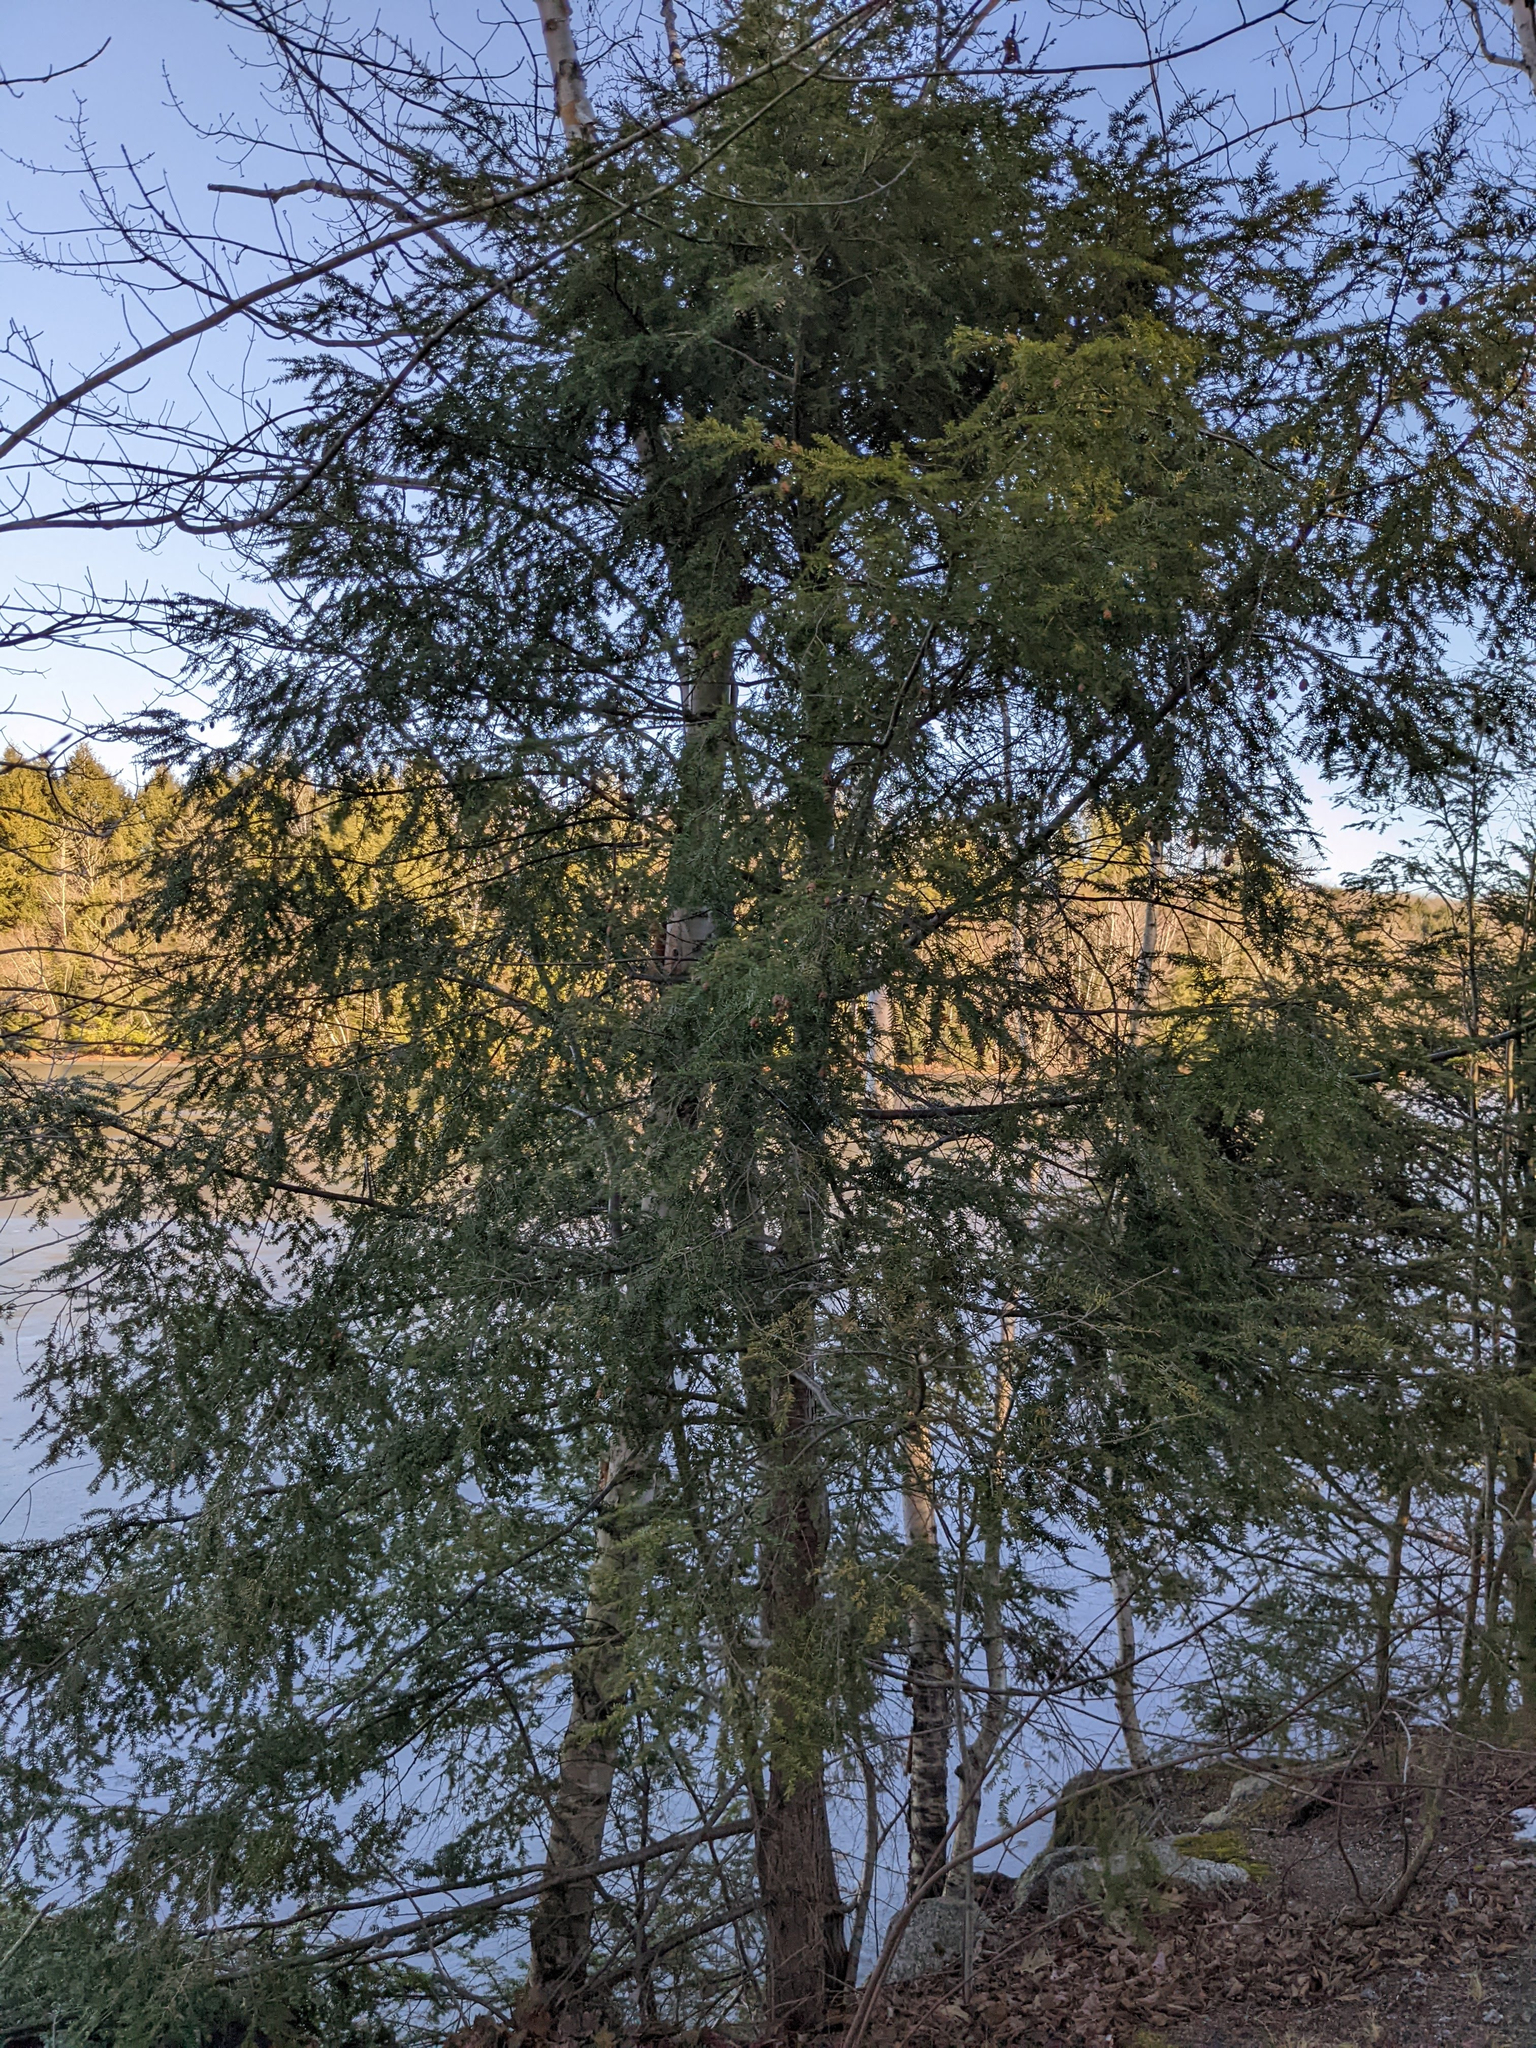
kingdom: Plantae
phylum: Tracheophyta
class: Pinopsida
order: Pinales
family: Pinaceae
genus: Tsuga
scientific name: Tsuga canadensis
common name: Eastern hemlock
